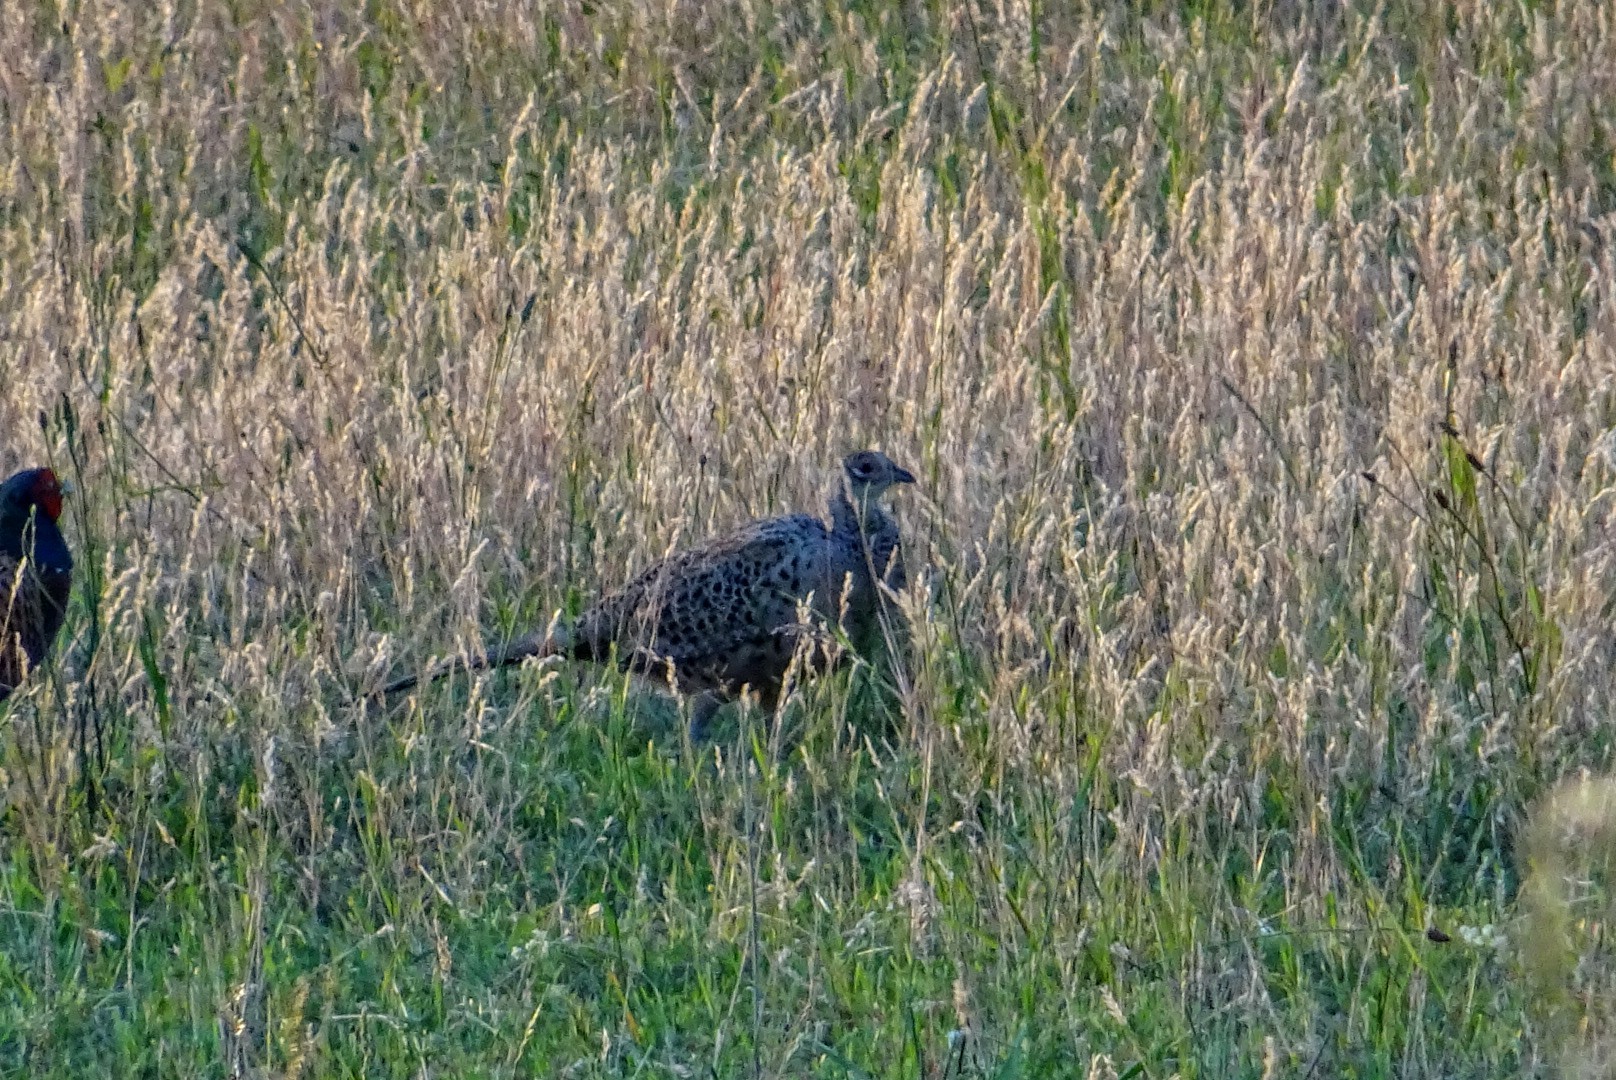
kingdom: Animalia
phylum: Chordata
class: Aves
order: Galliformes
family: Phasianidae
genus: Phasianus
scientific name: Phasianus colchicus
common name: Common pheasant
